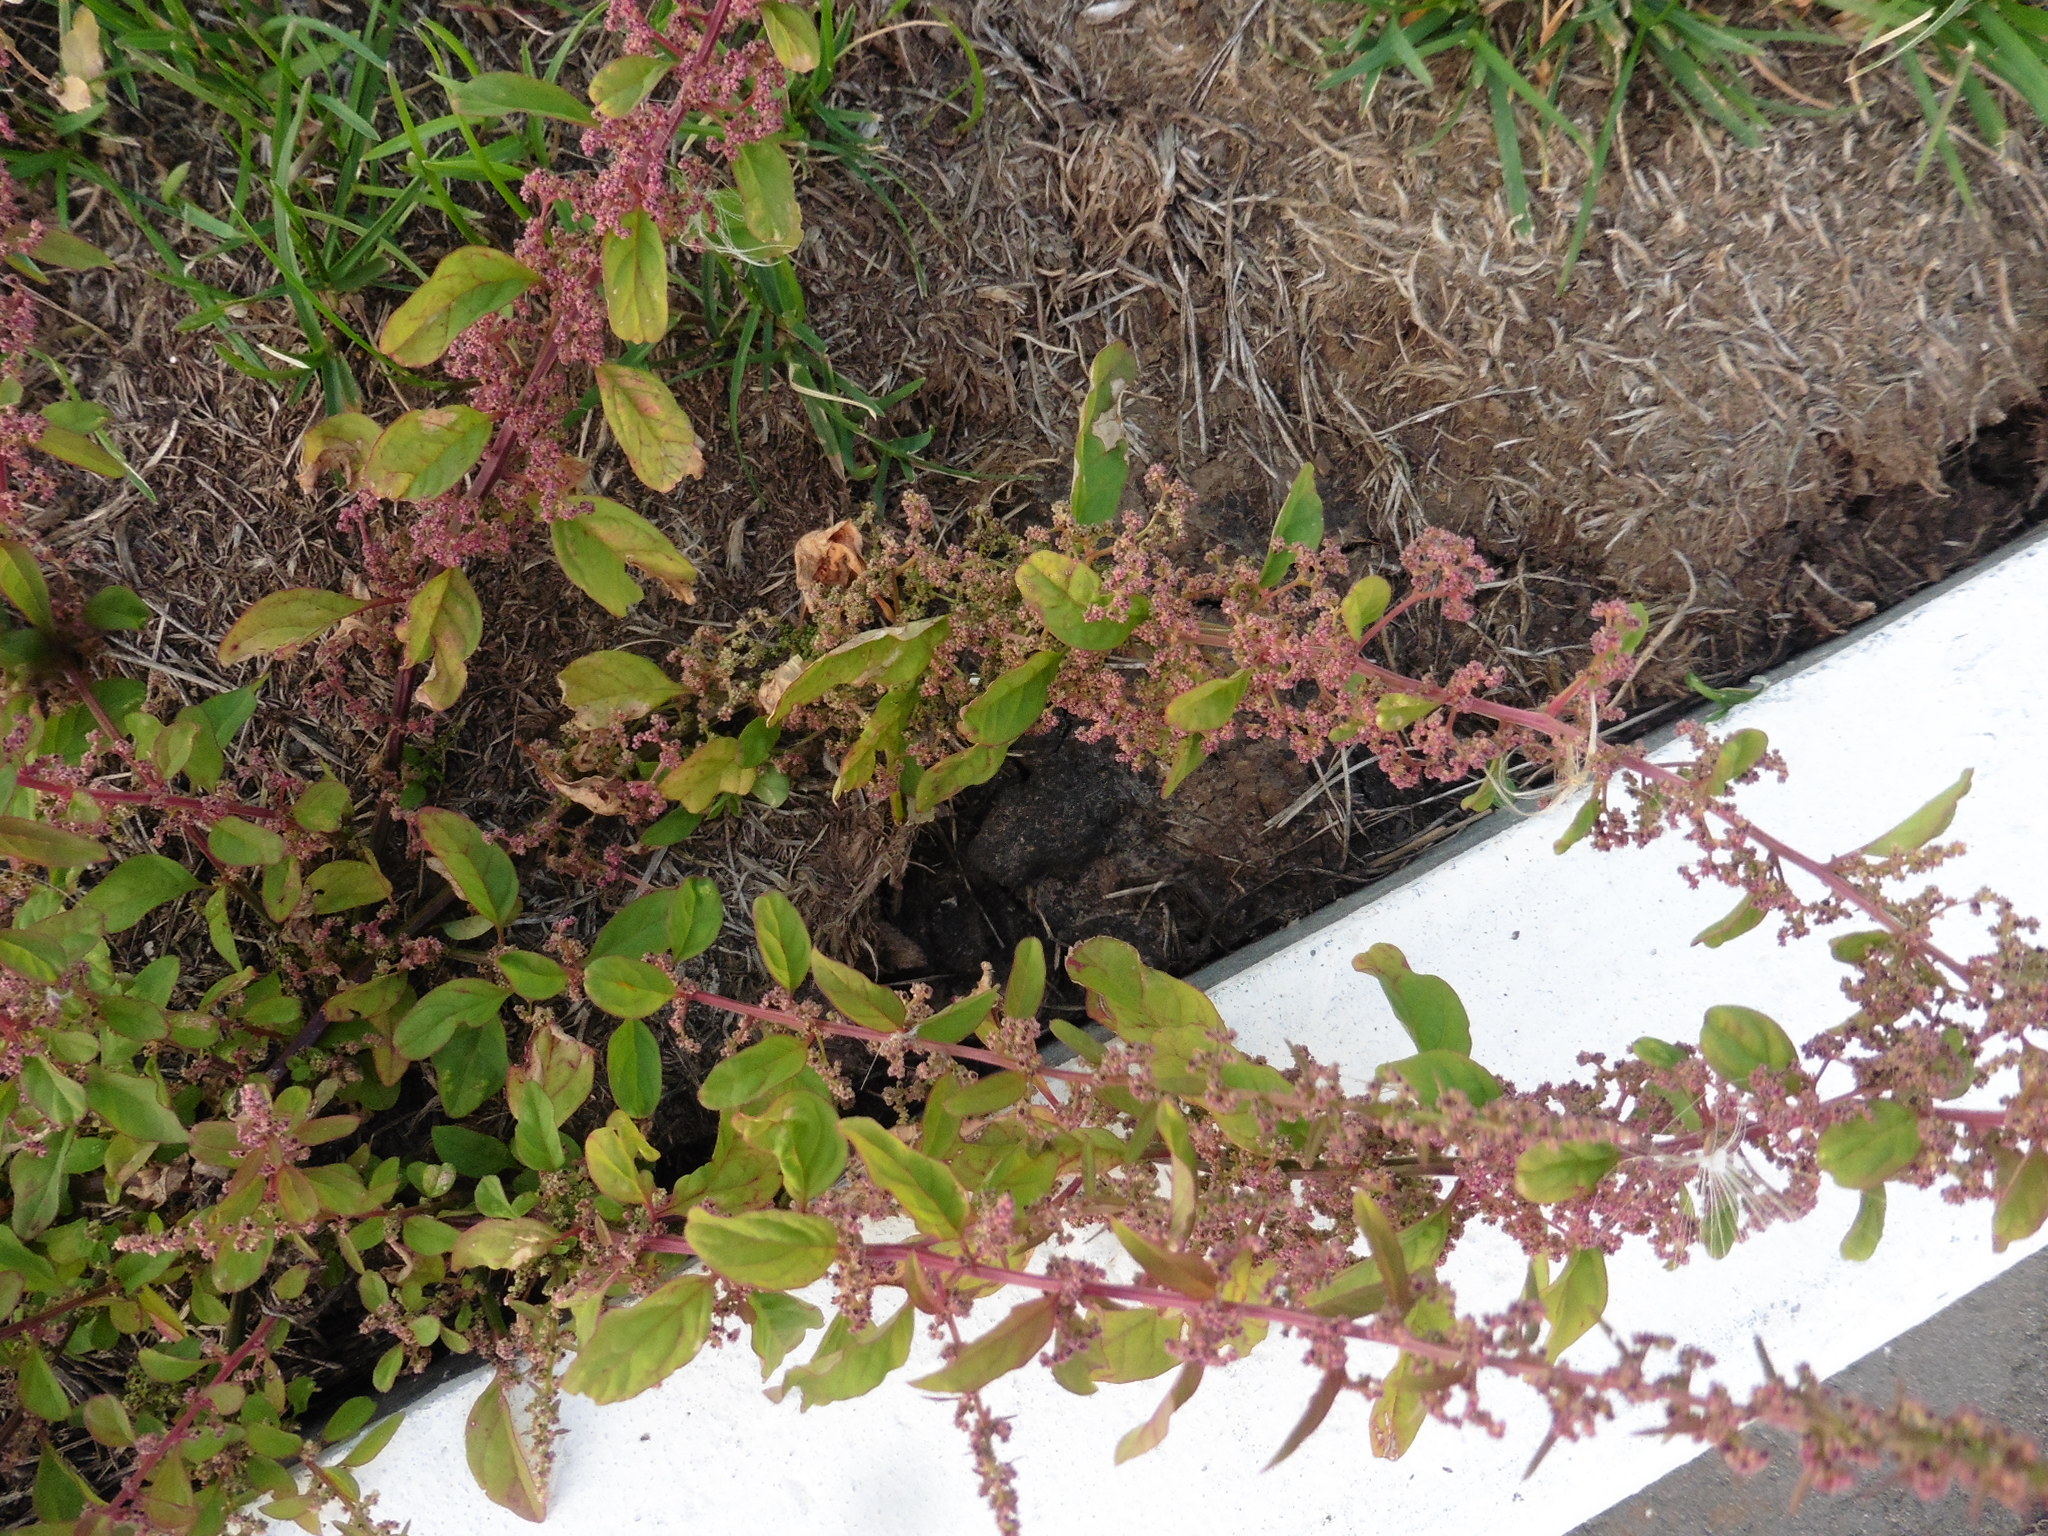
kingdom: Plantae
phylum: Tracheophyta
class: Magnoliopsida
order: Caryophyllales
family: Amaranthaceae
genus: Lipandra
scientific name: Lipandra polysperma
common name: Many-seed goosefoot
